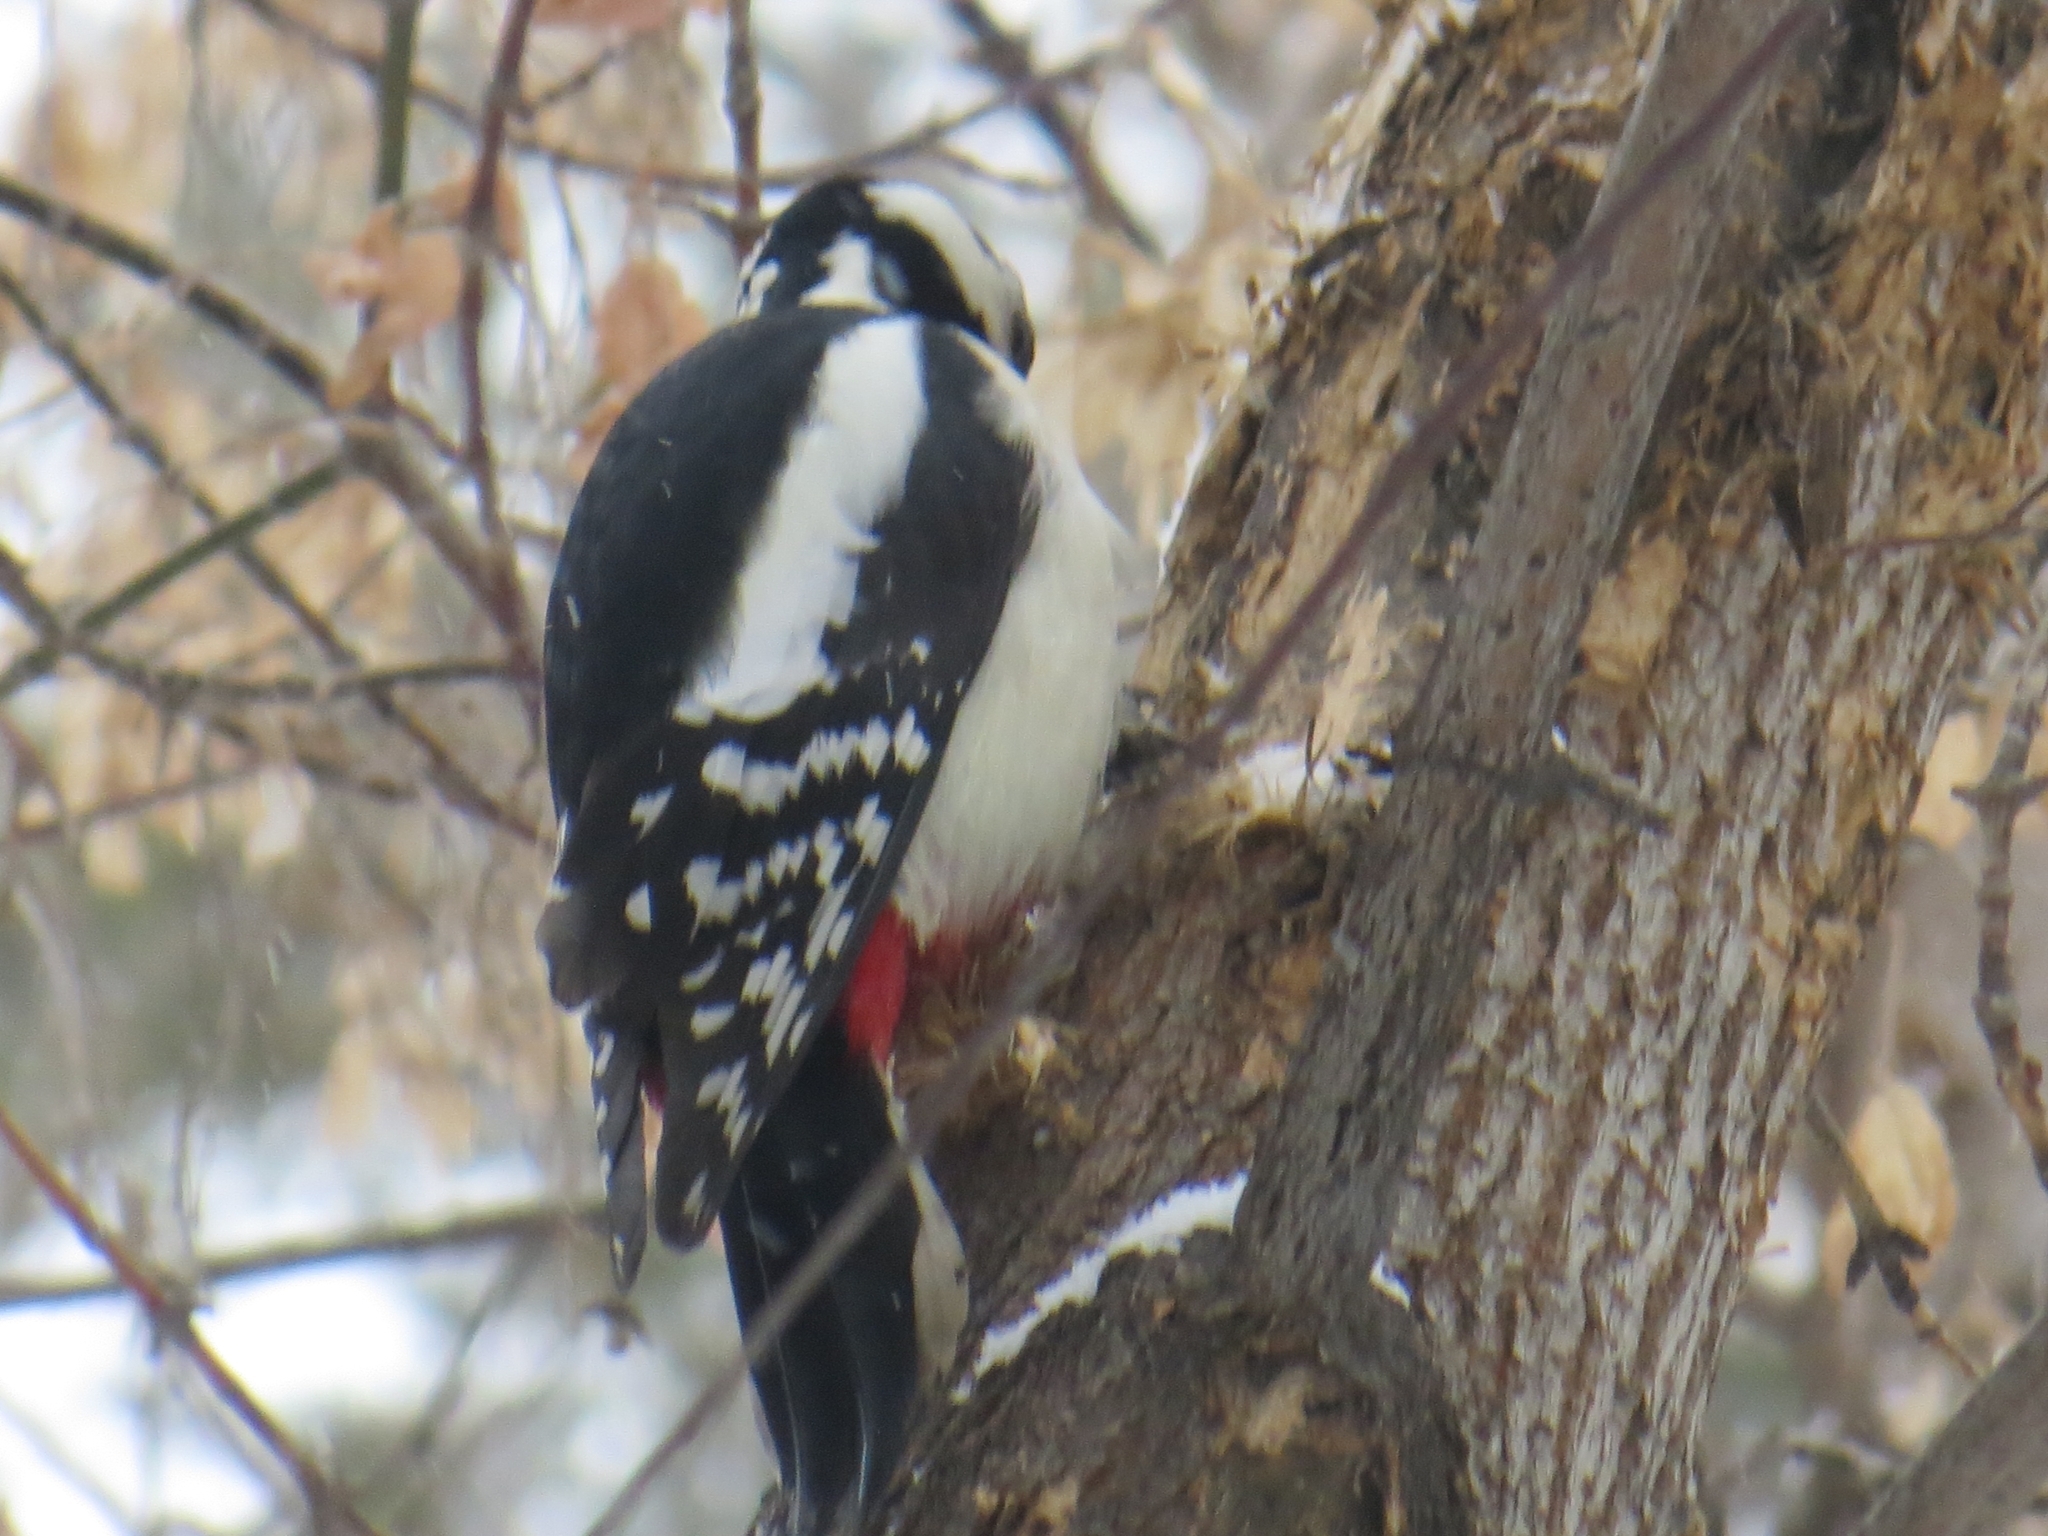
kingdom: Animalia
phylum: Chordata
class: Aves
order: Piciformes
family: Picidae
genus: Dendrocopos
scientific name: Dendrocopos major
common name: Great spotted woodpecker
